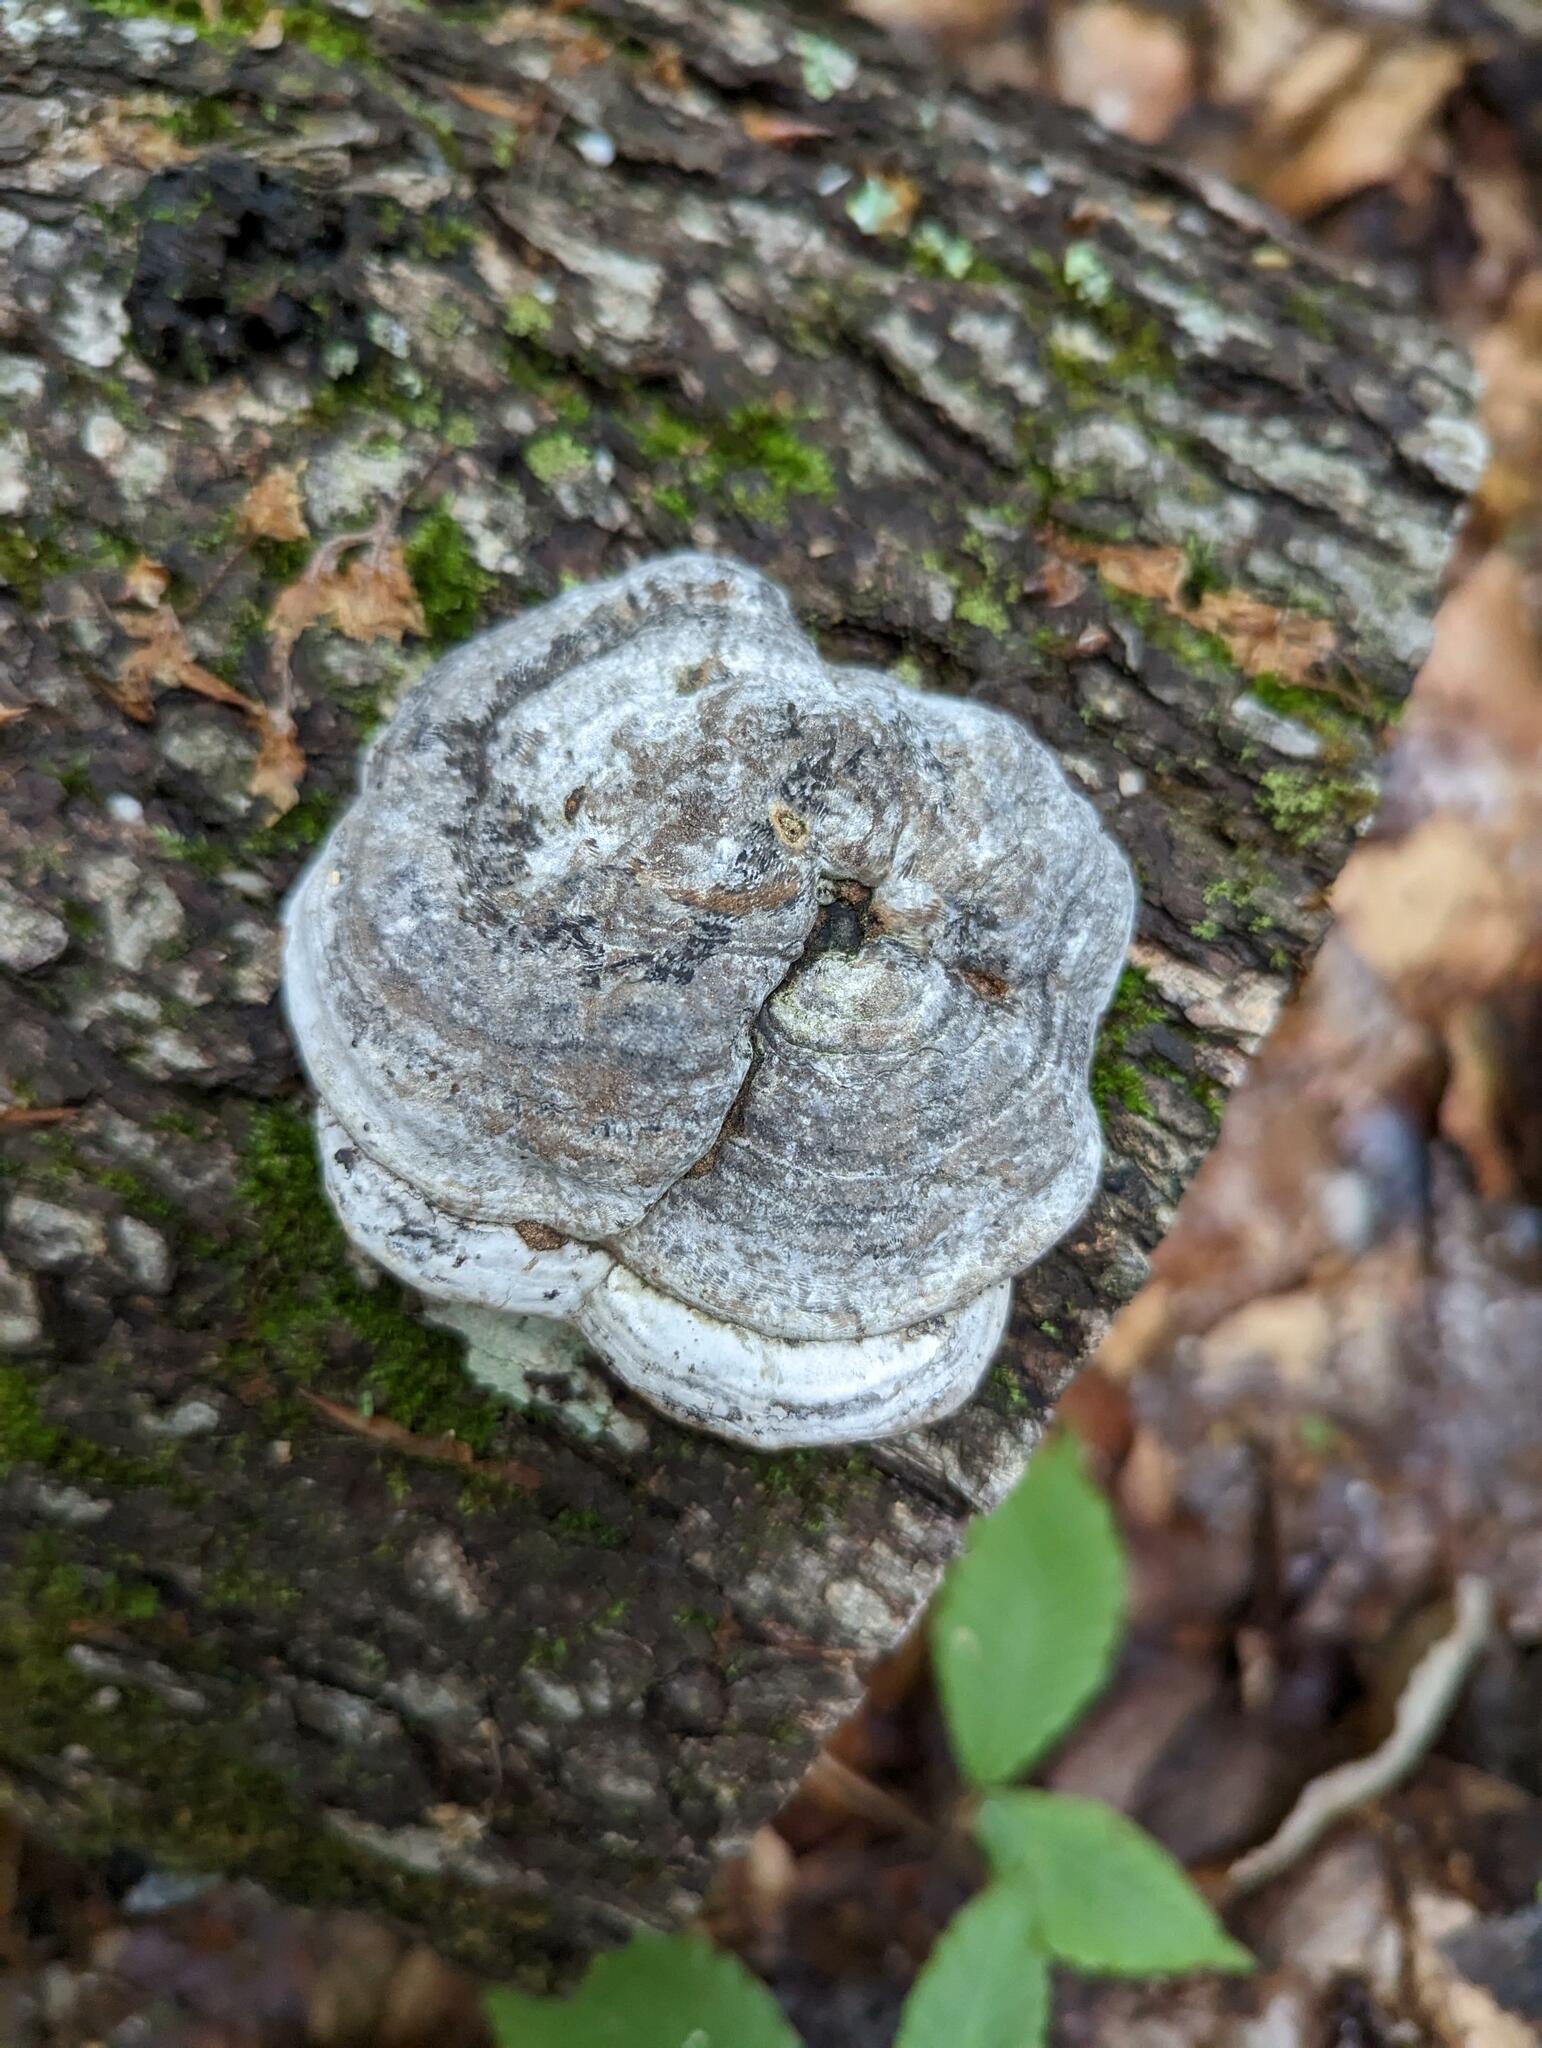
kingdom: Fungi
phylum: Basidiomycota
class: Agaricomycetes
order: Polyporales
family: Polyporaceae
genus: Fomes
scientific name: Fomes fomentarius
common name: Hoof fungus
